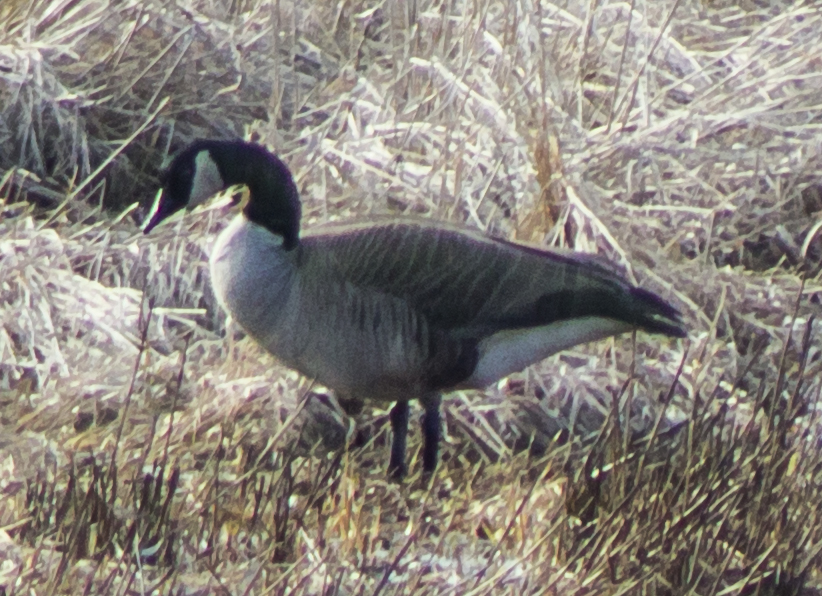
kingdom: Animalia
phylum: Chordata
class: Aves
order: Anseriformes
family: Anatidae
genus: Branta
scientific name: Branta canadensis
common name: Canada goose
